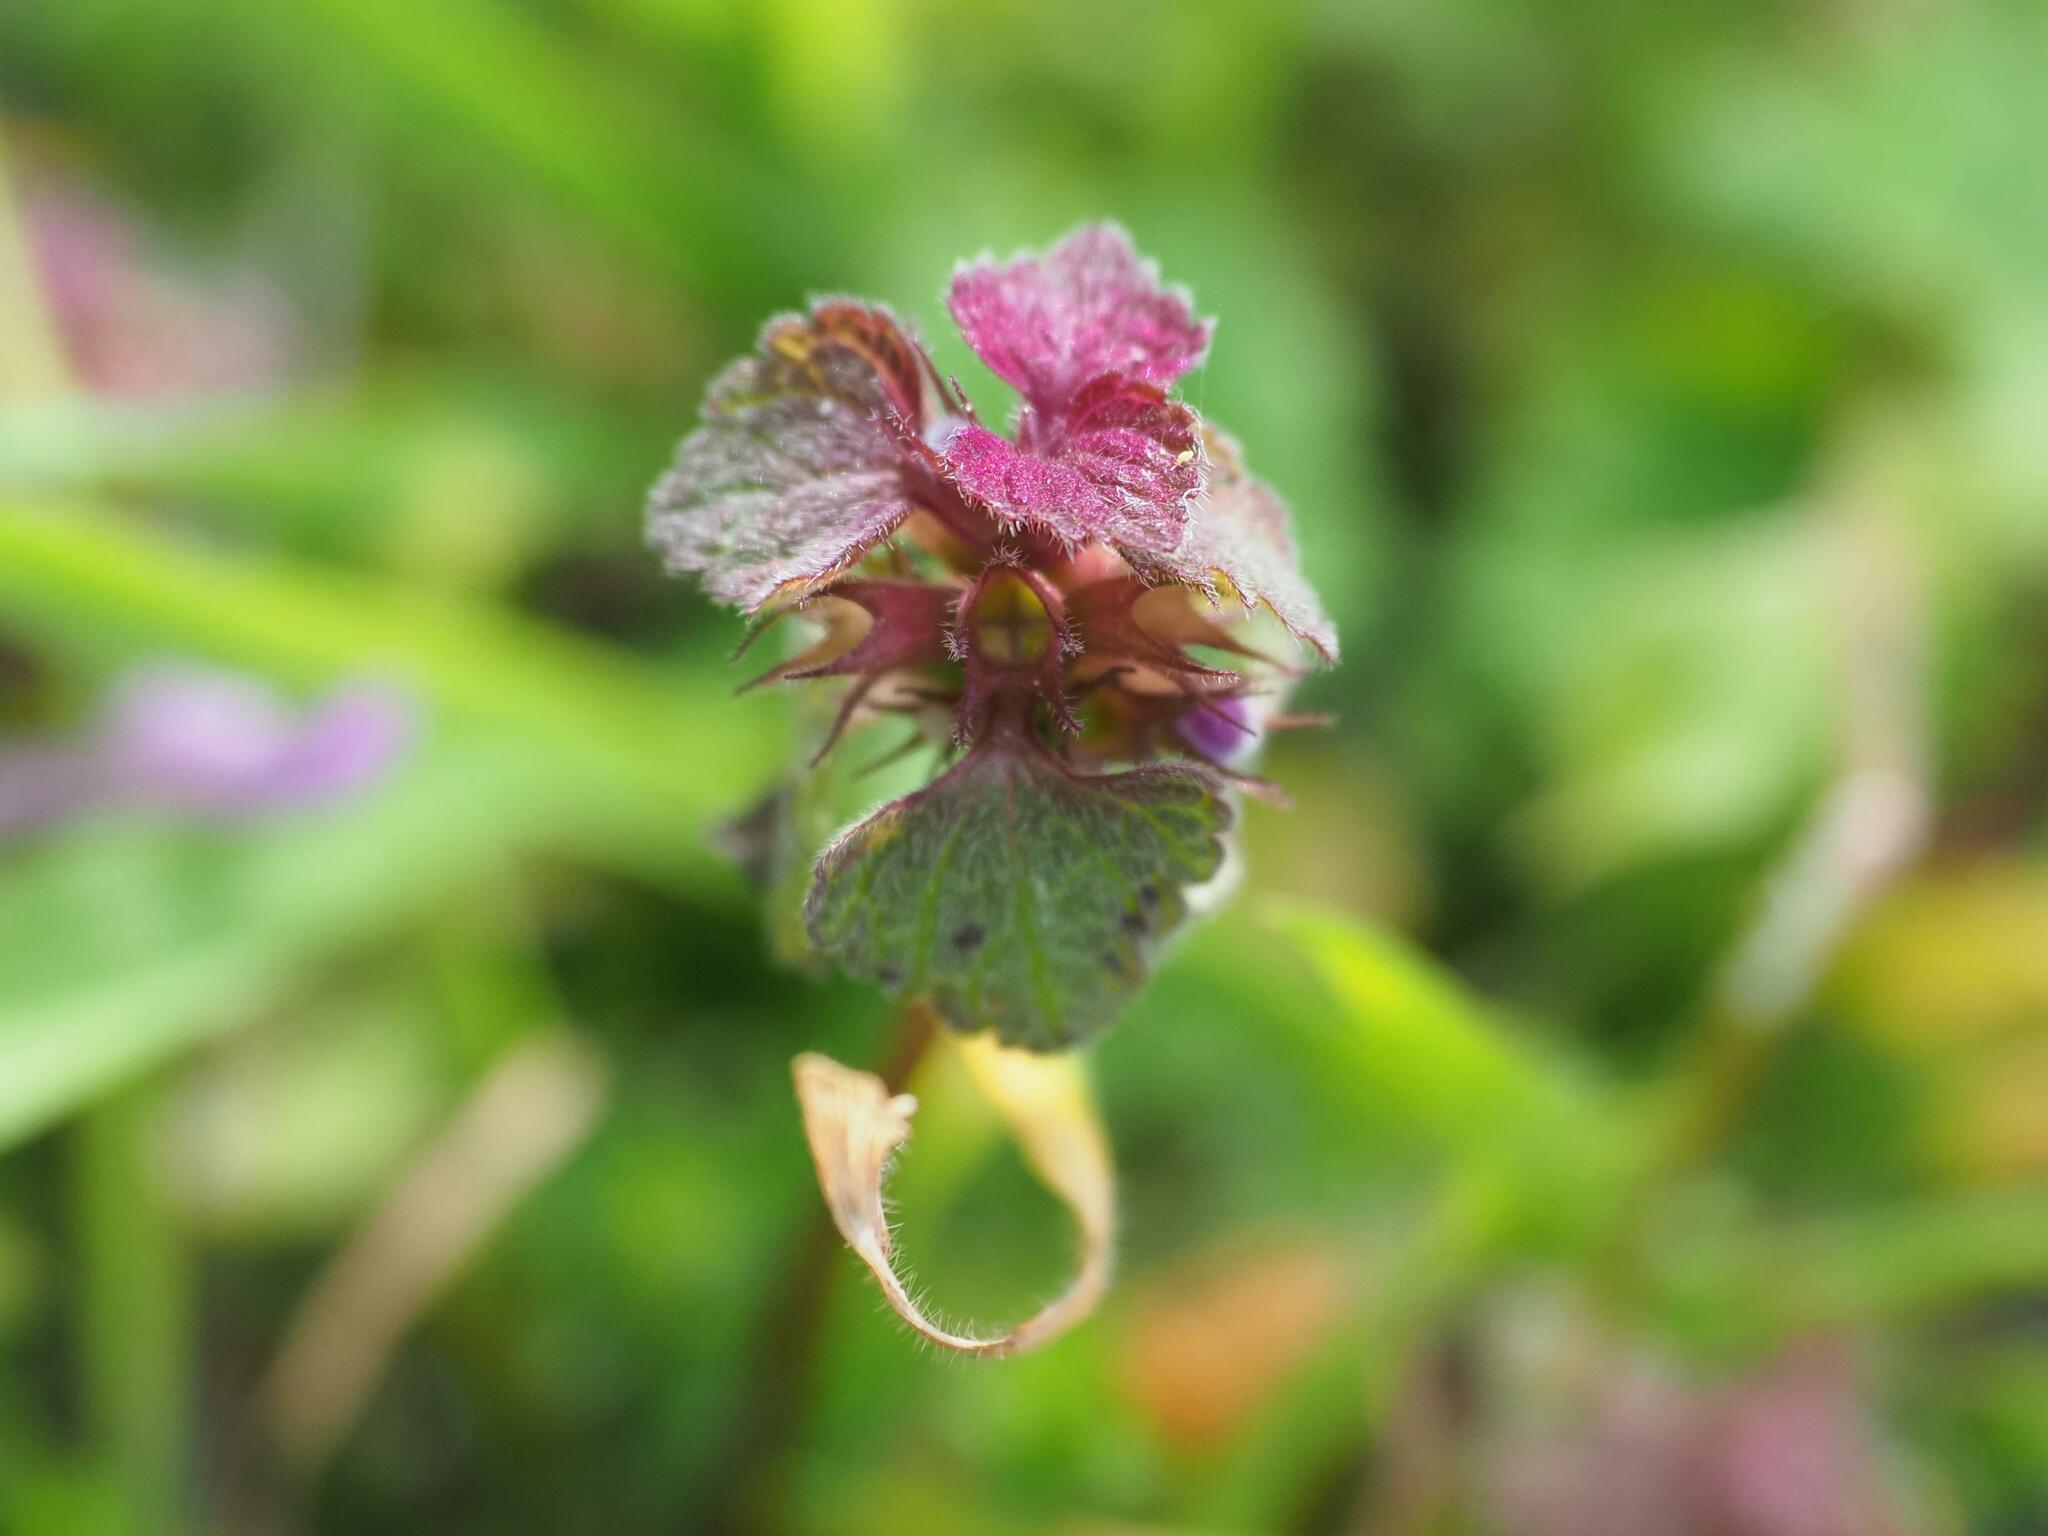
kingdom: Plantae
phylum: Tracheophyta
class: Magnoliopsida
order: Lamiales
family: Lamiaceae
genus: Lamium
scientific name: Lamium purpureum
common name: Red dead-nettle
